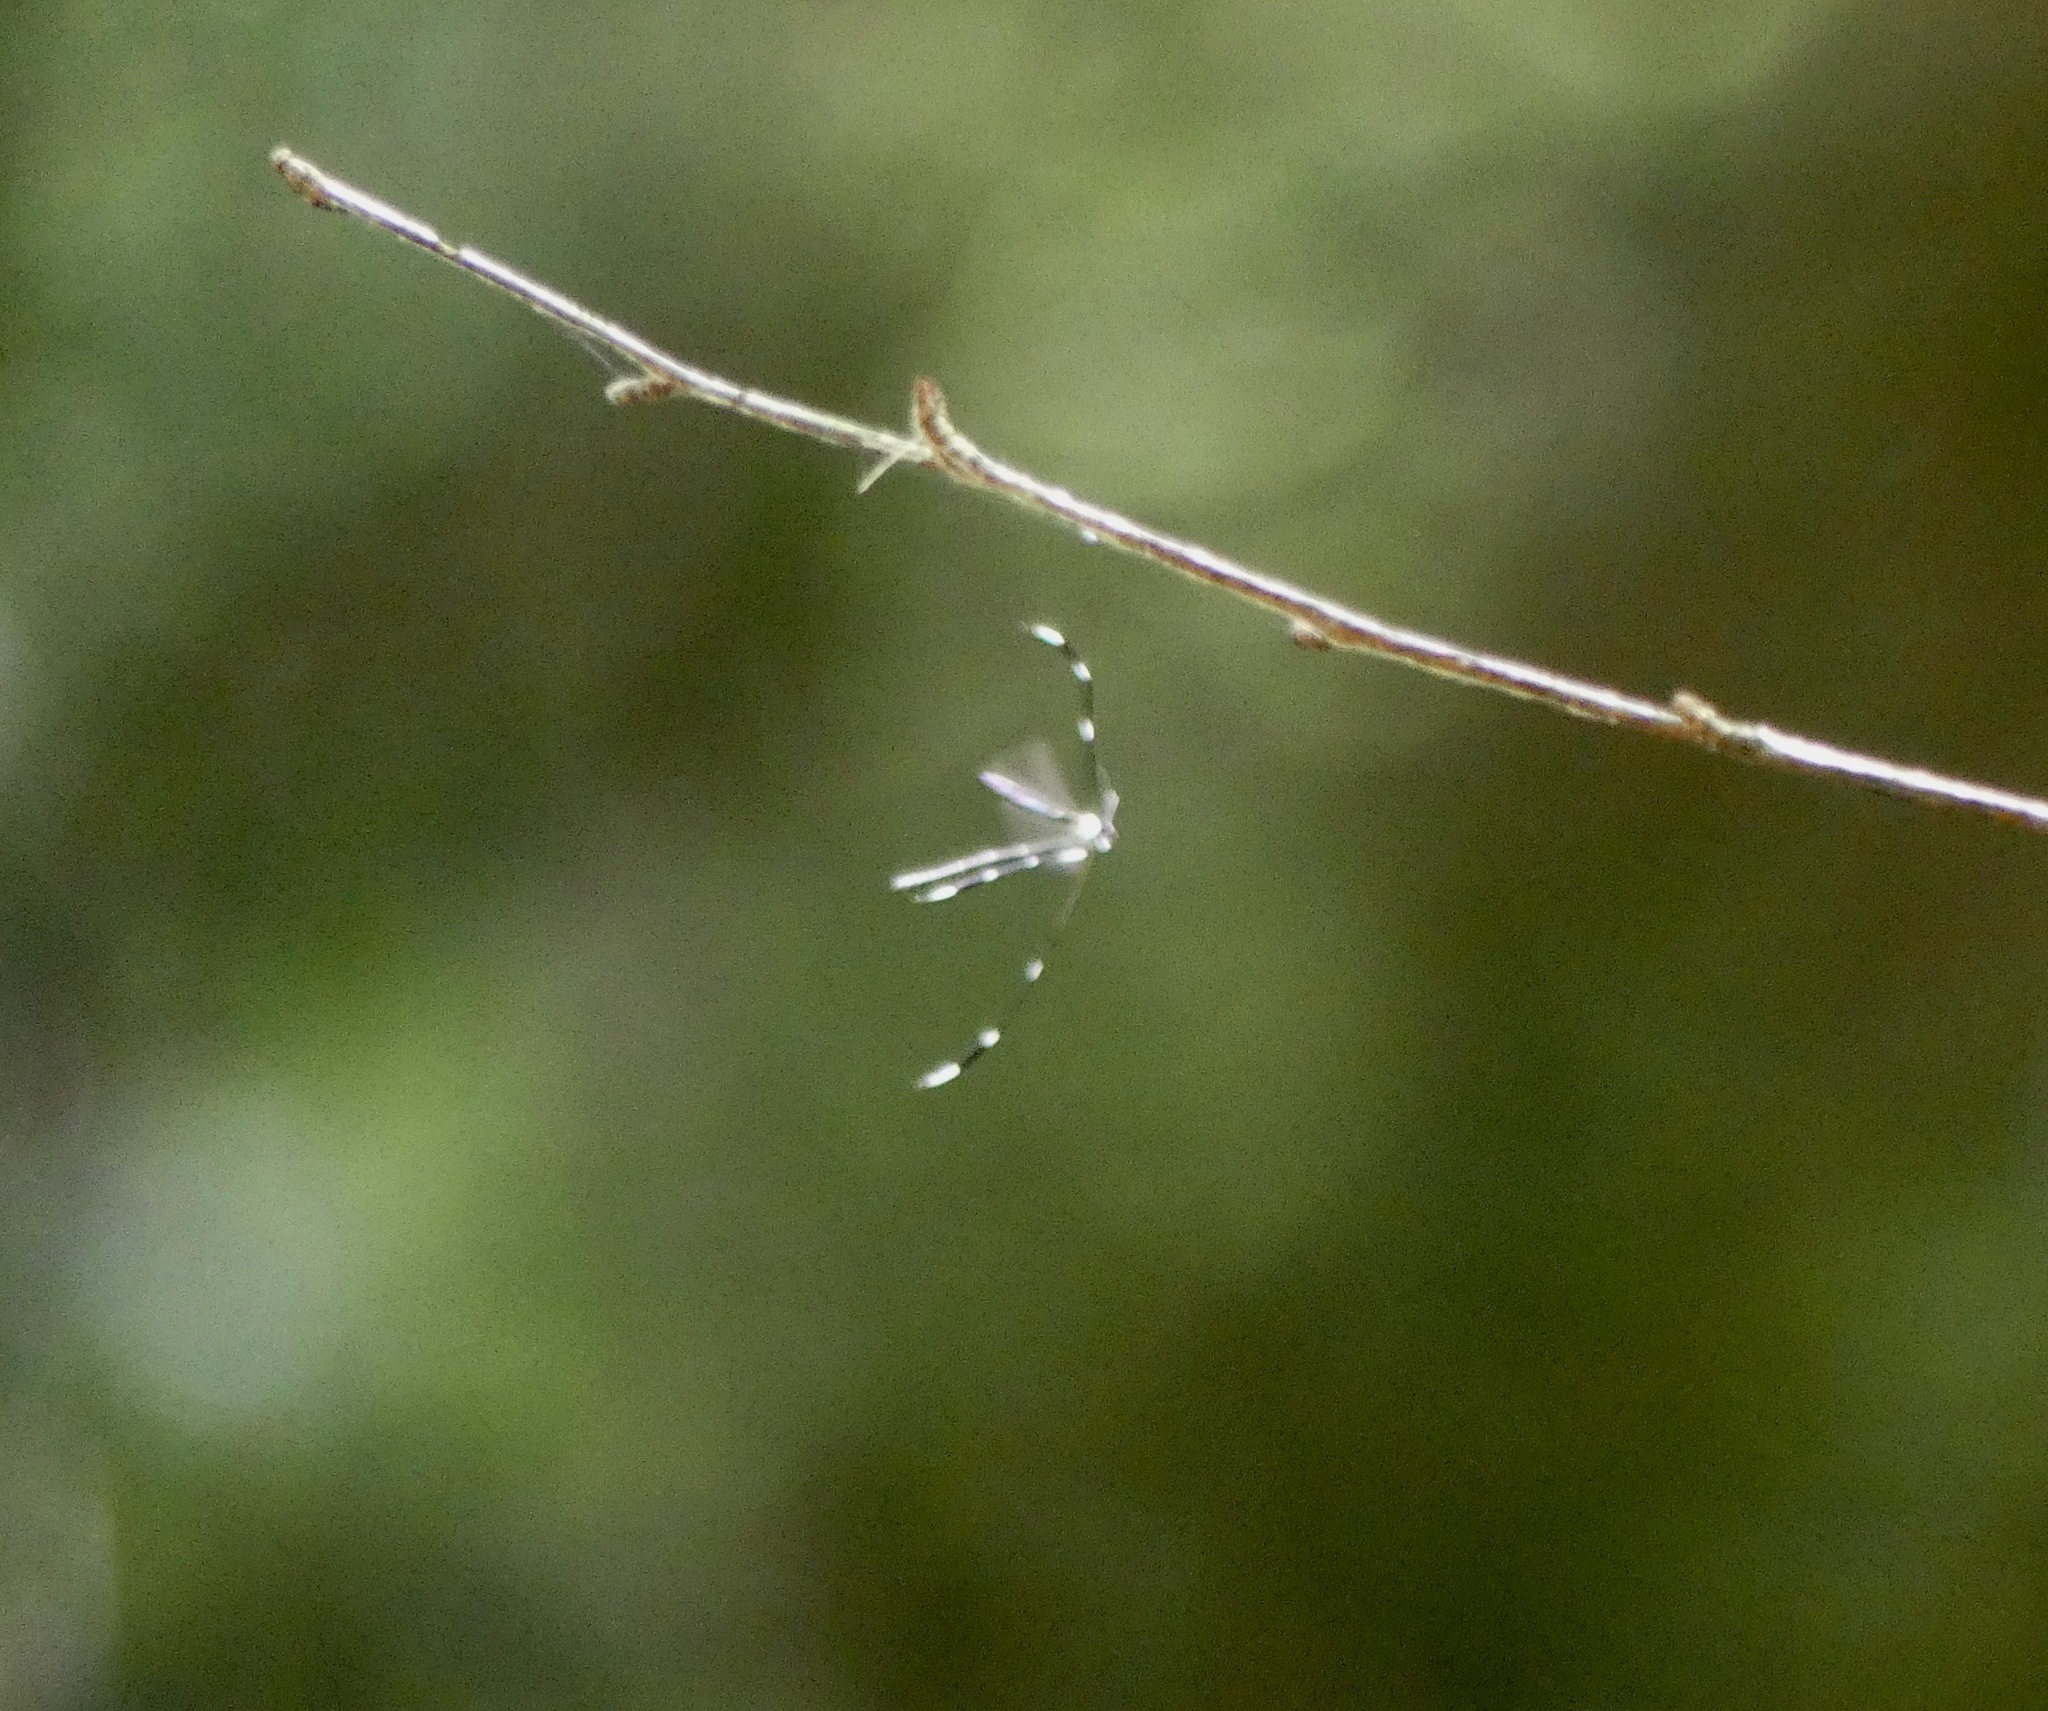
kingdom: Animalia
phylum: Arthropoda
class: Insecta
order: Diptera
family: Ptychopteridae
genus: Bittacomorpha
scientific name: Bittacomorpha clavipes
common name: Eastern phantom crane fly
